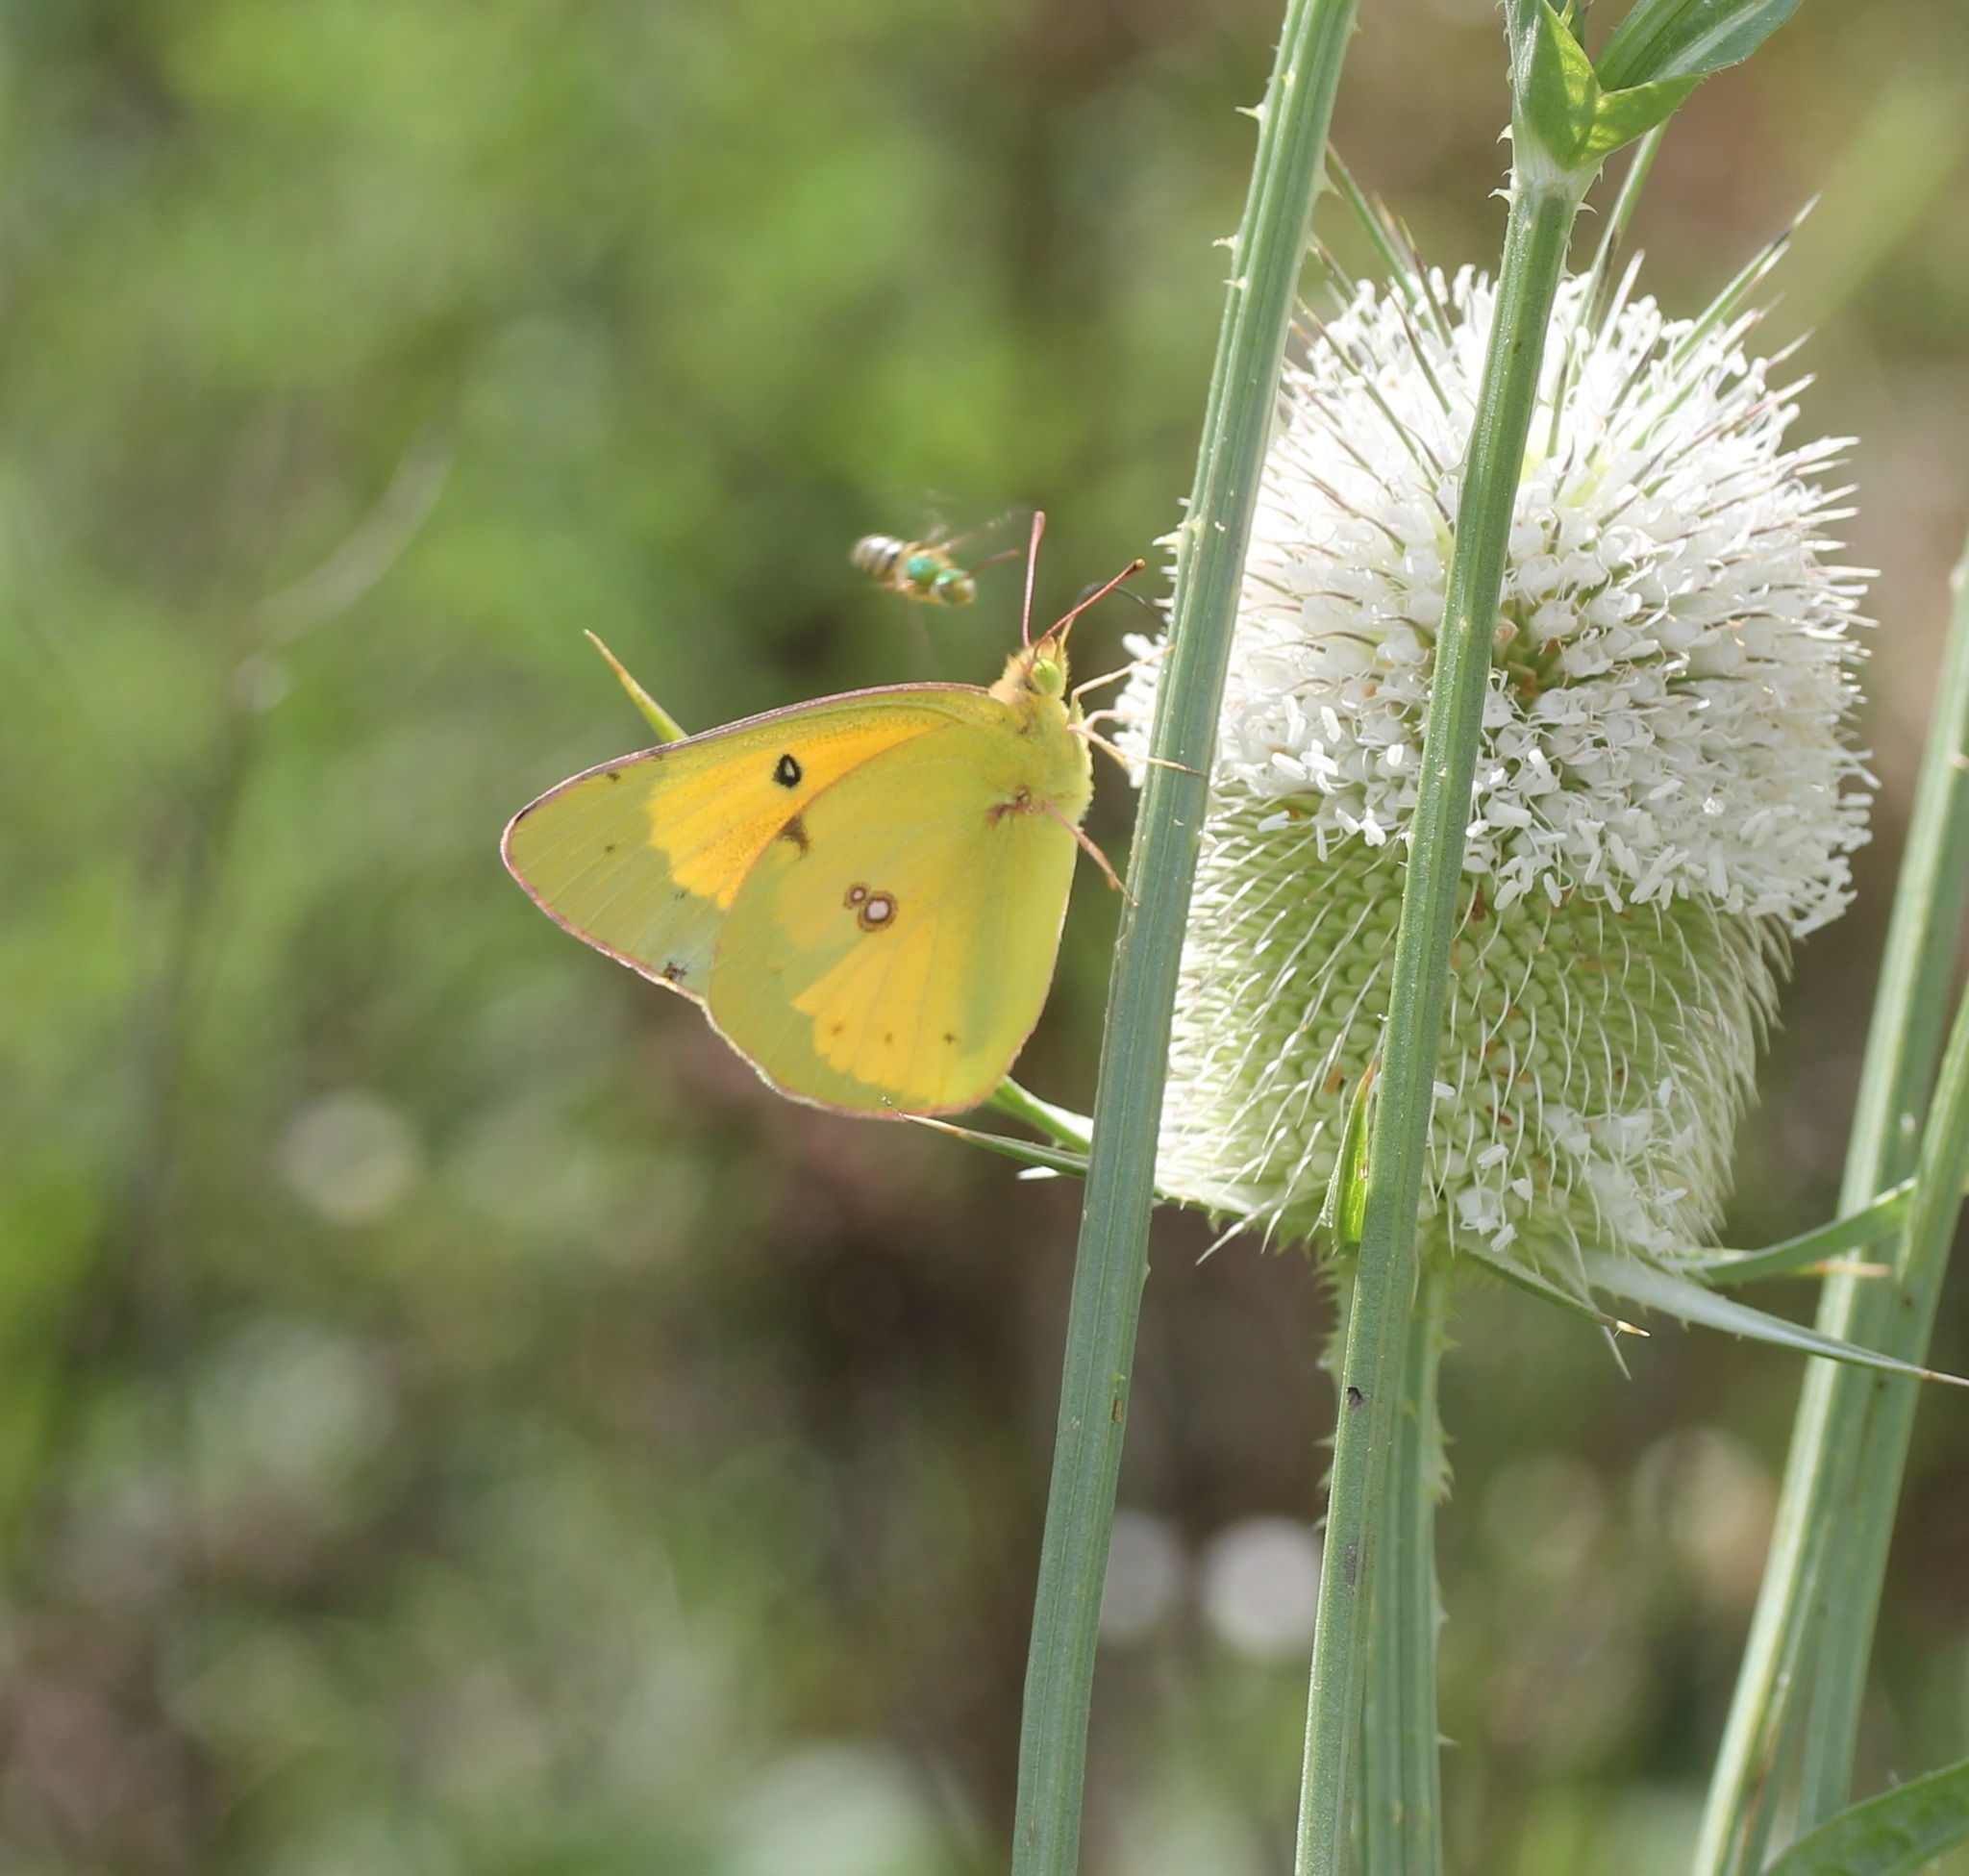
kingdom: Animalia
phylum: Arthropoda
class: Insecta
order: Lepidoptera
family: Pieridae
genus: Colias
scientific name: Colias eurytheme
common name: Alfalfa butterfly
